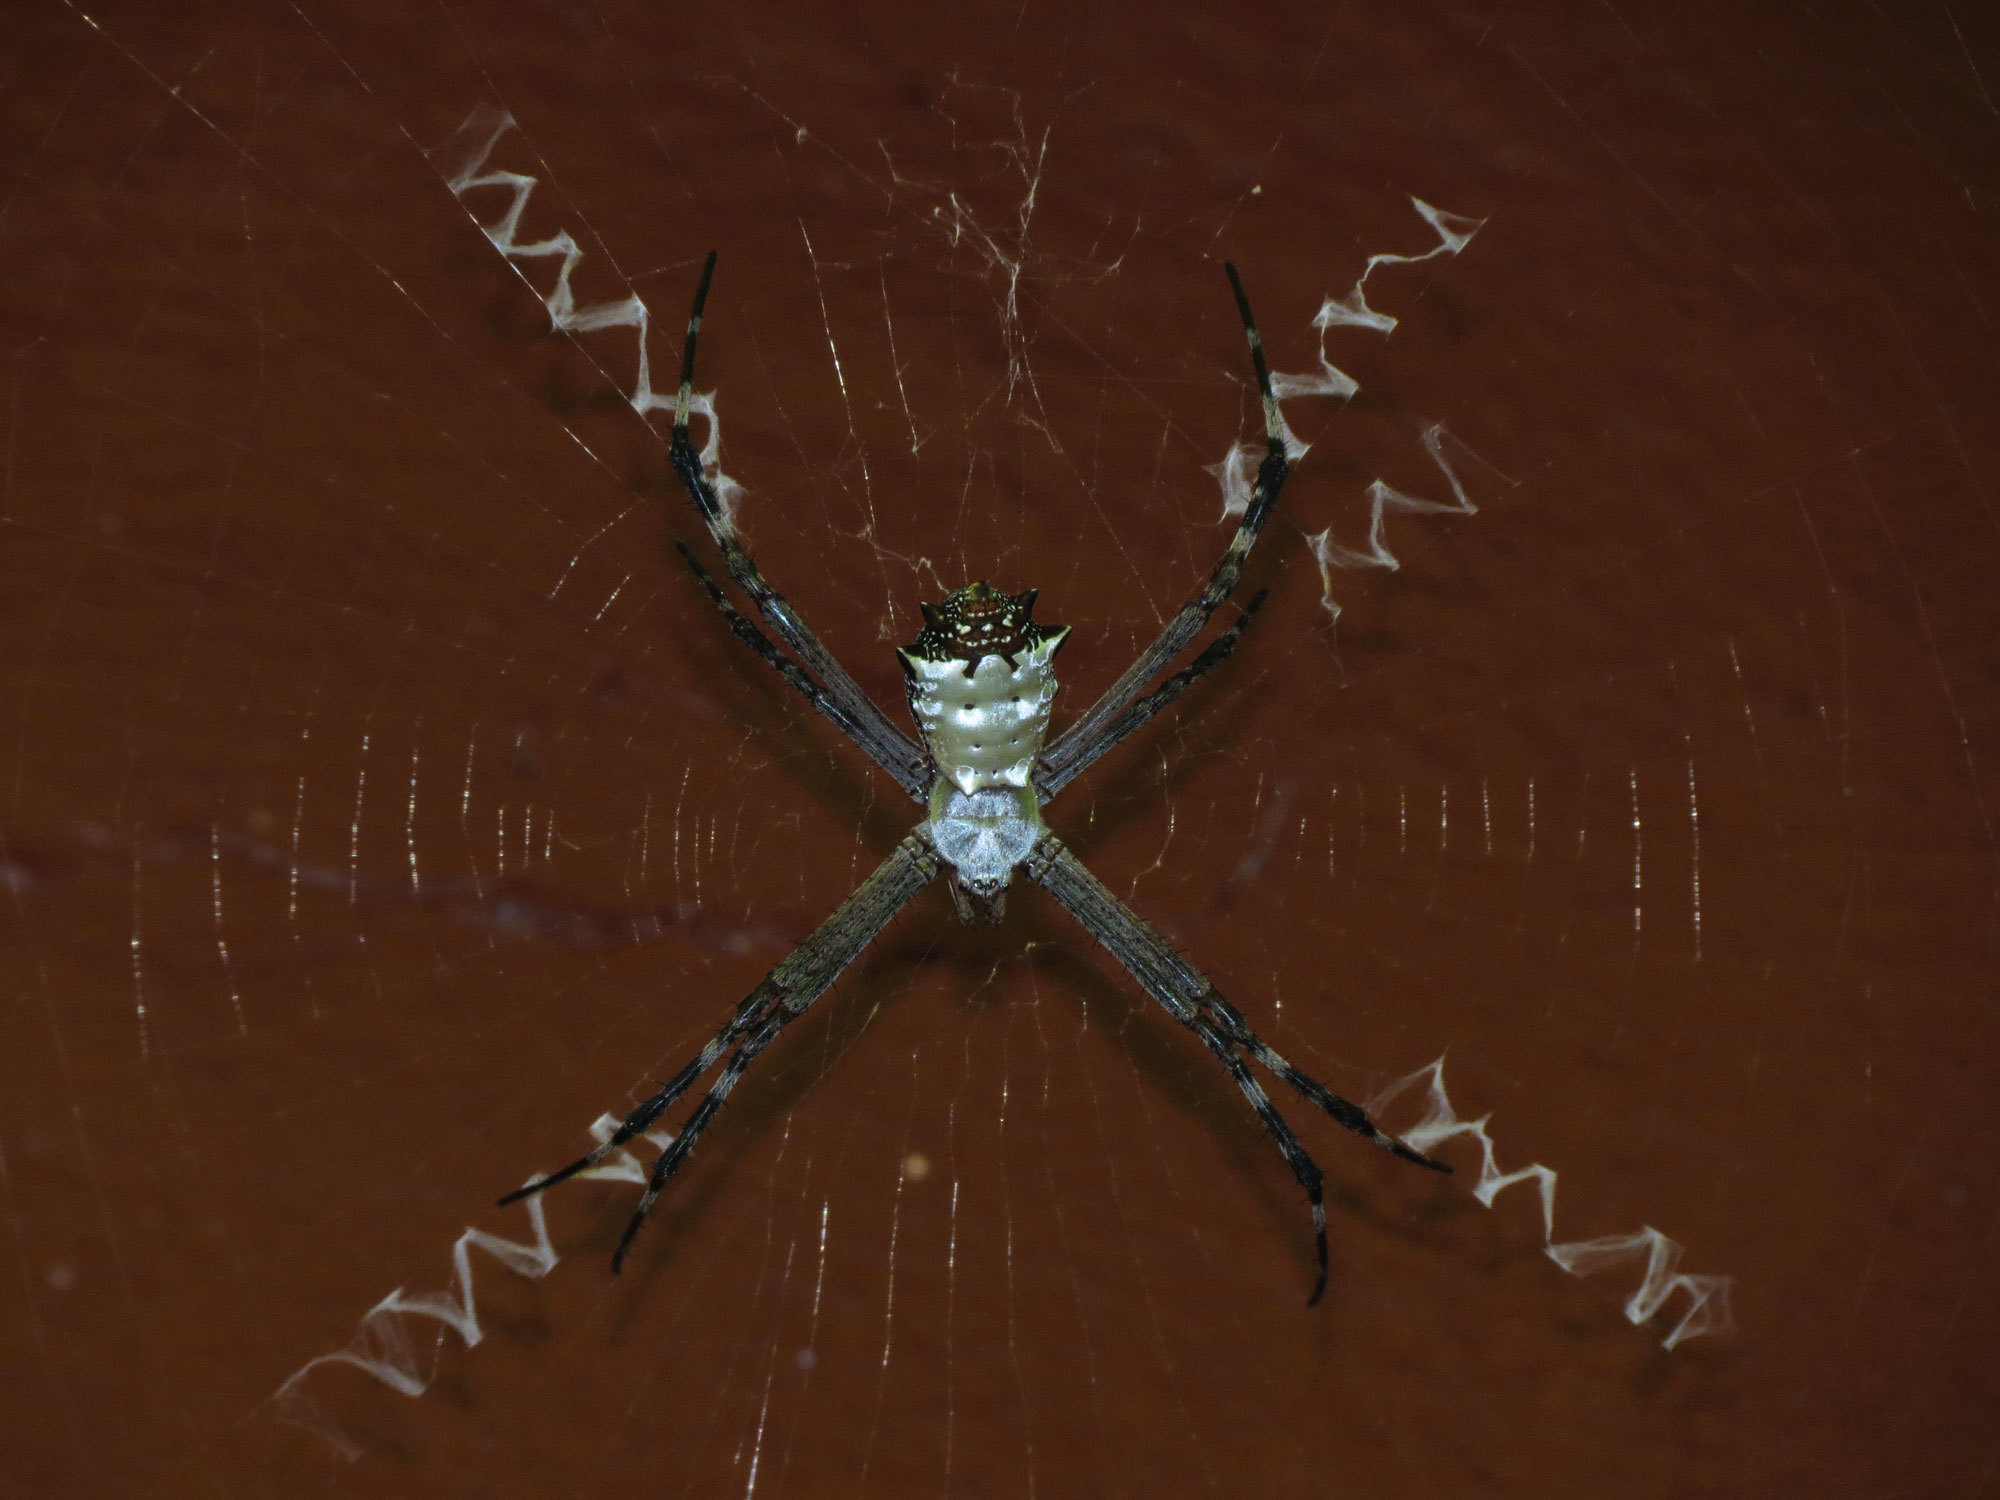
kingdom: Animalia
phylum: Arthropoda
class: Arachnida
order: Araneae
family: Araneidae
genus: Argiope
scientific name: Argiope submaronica
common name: Orb weavers
